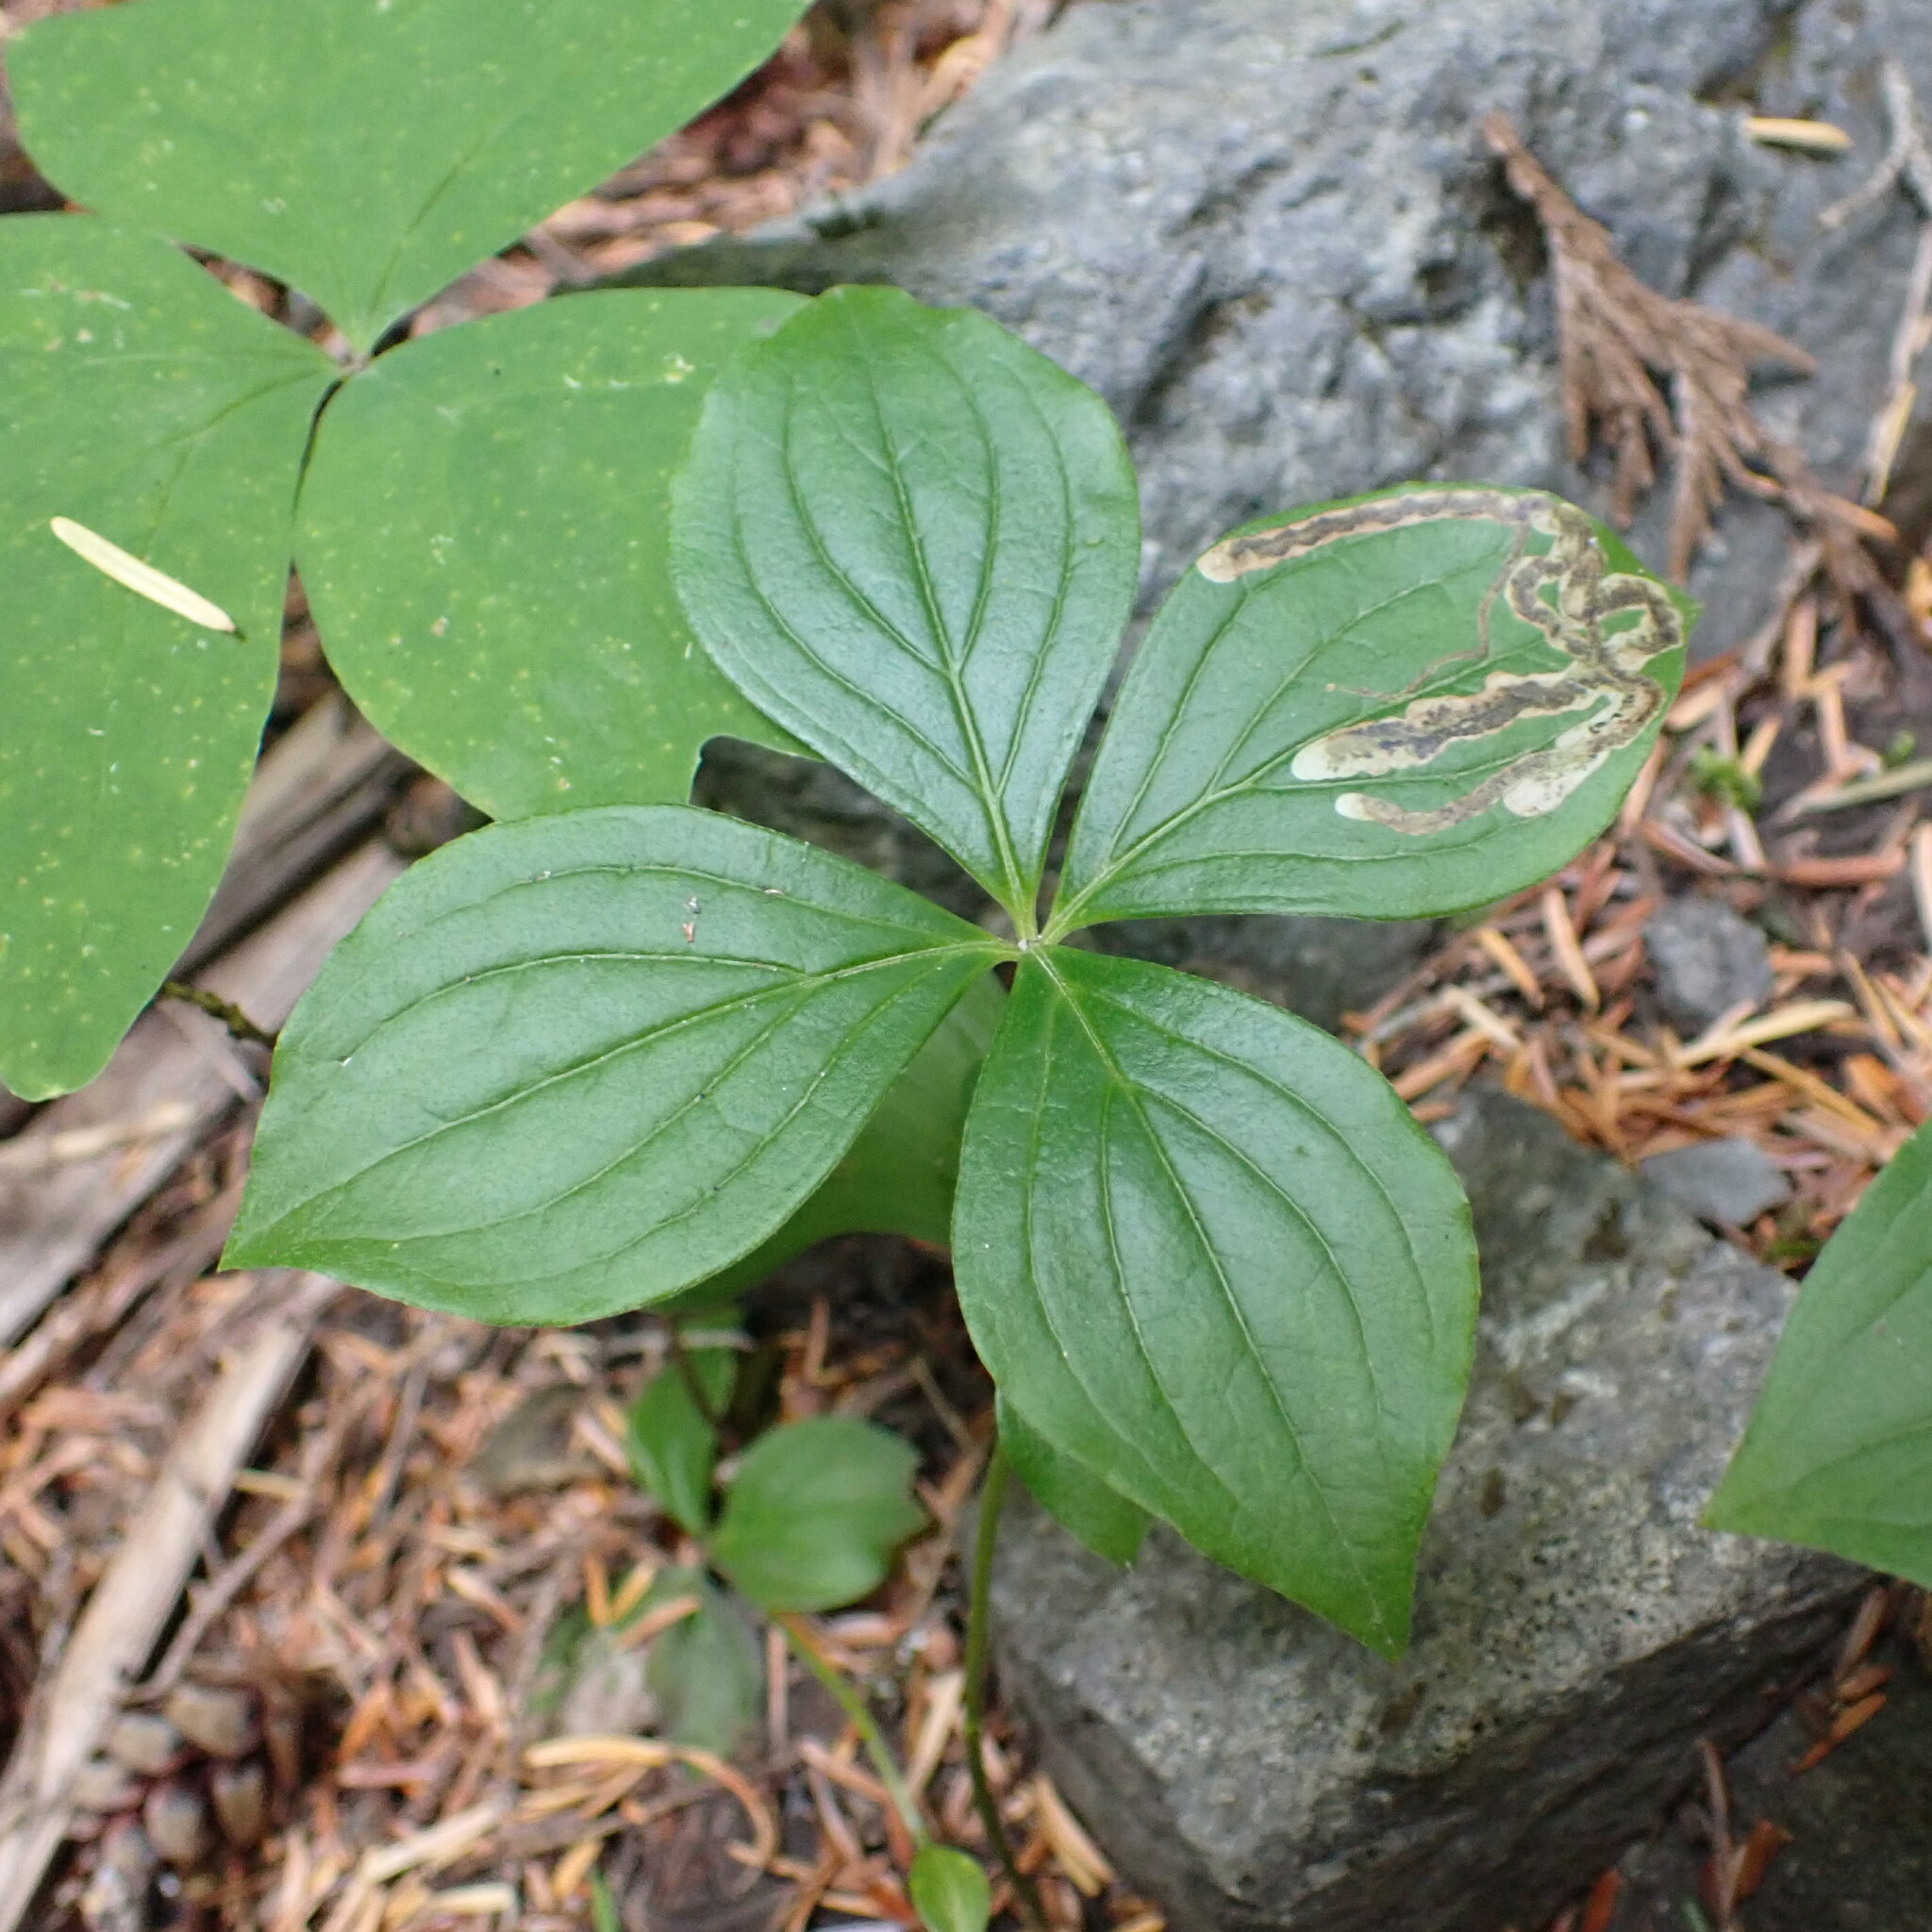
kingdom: Plantae
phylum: Tracheophyta
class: Magnoliopsida
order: Cornales
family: Cornaceae
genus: Cornus
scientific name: Cornus unalaschkensis
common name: Alaska bunchberry
